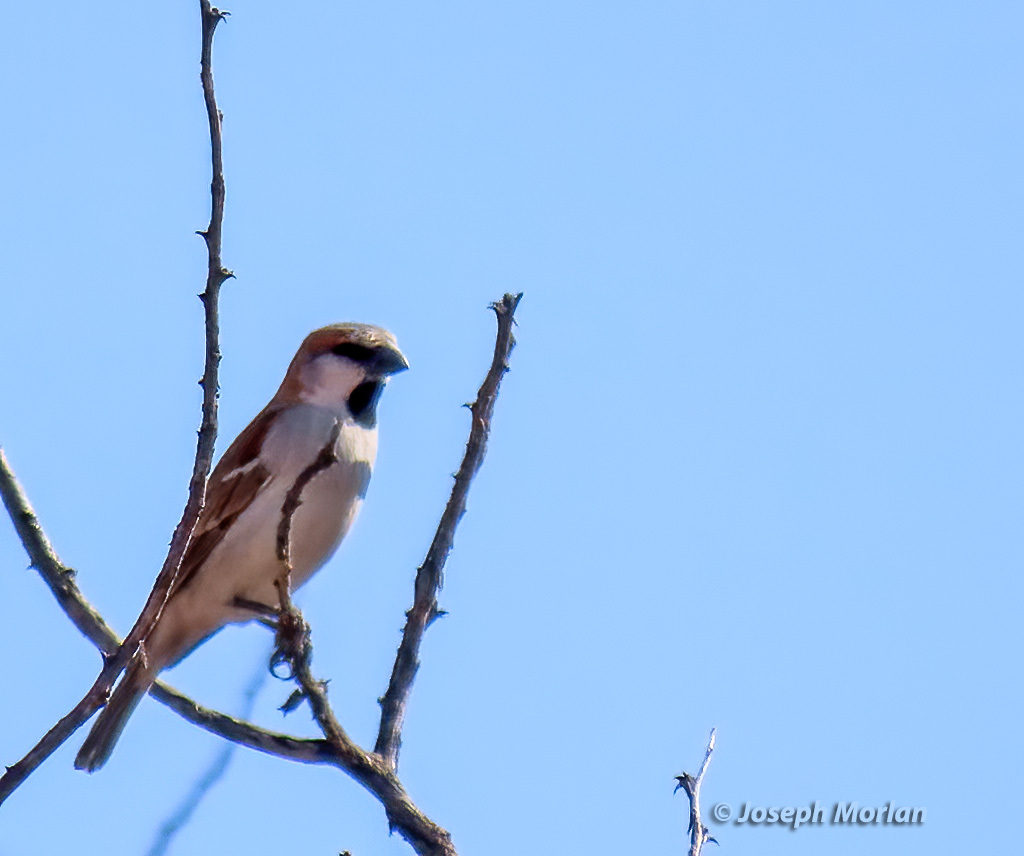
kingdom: Animalia
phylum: Chordata
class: Aves
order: Passeriformes
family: Passeridae
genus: Passer
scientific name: Passer motitensis
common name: Great sparrow
